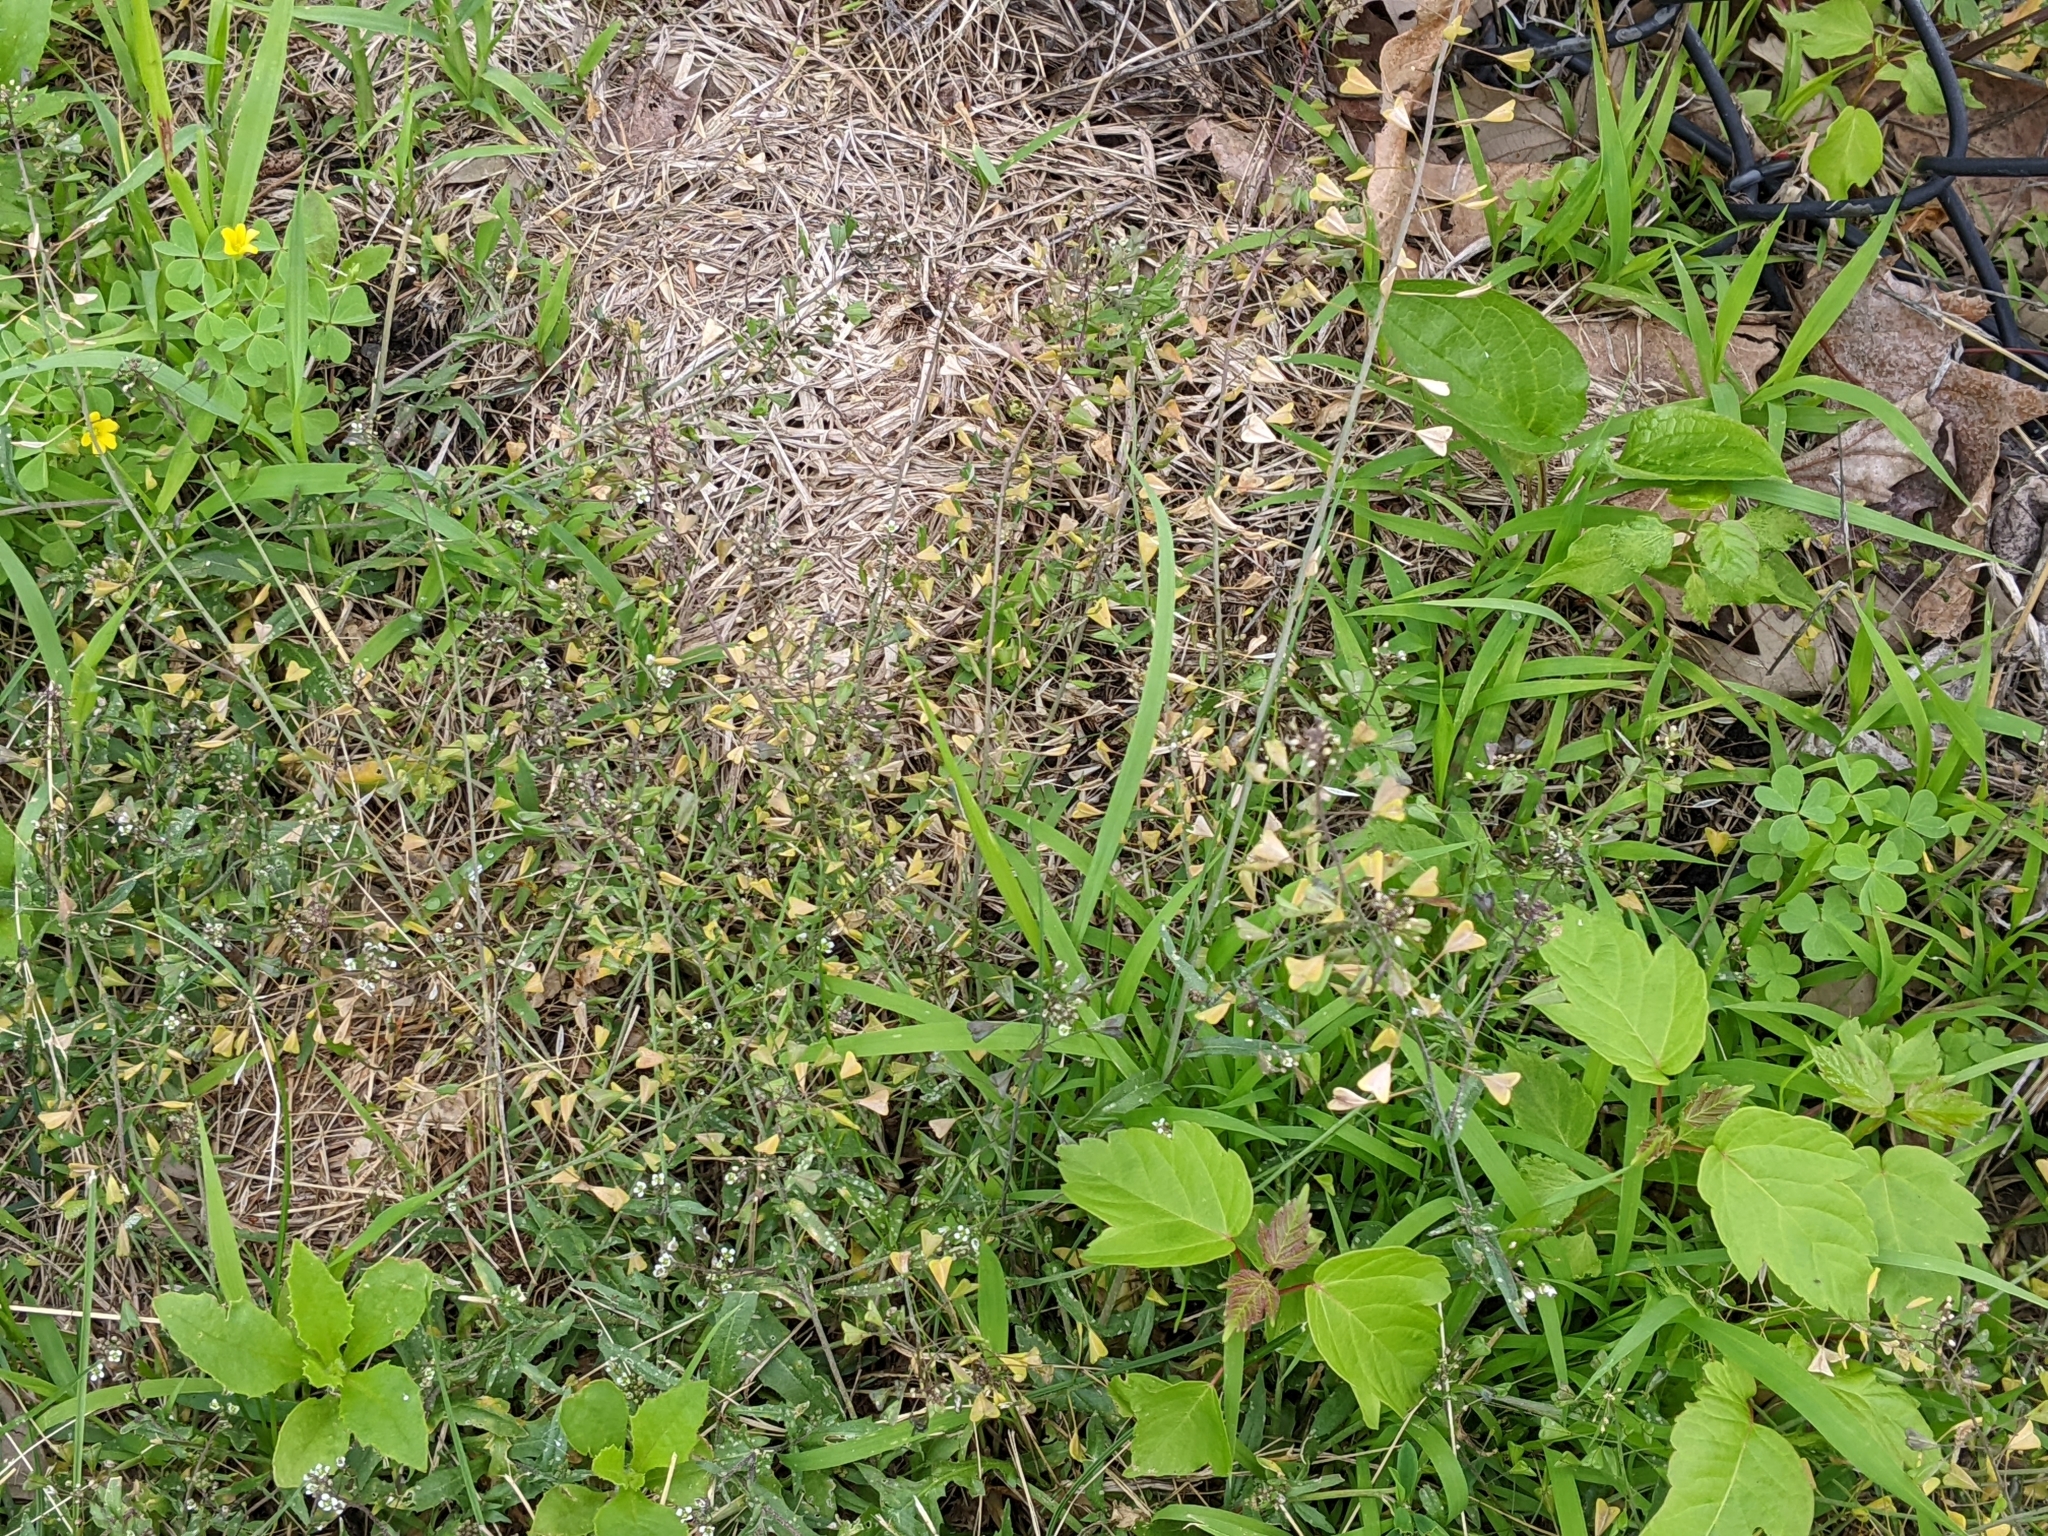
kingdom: Plantae
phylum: Tracheophyta
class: Magnoliopsida
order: Brassicales
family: Brassicaceae
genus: Capsella
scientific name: Capsella bursa-pastoris
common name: Shepherd's purse
